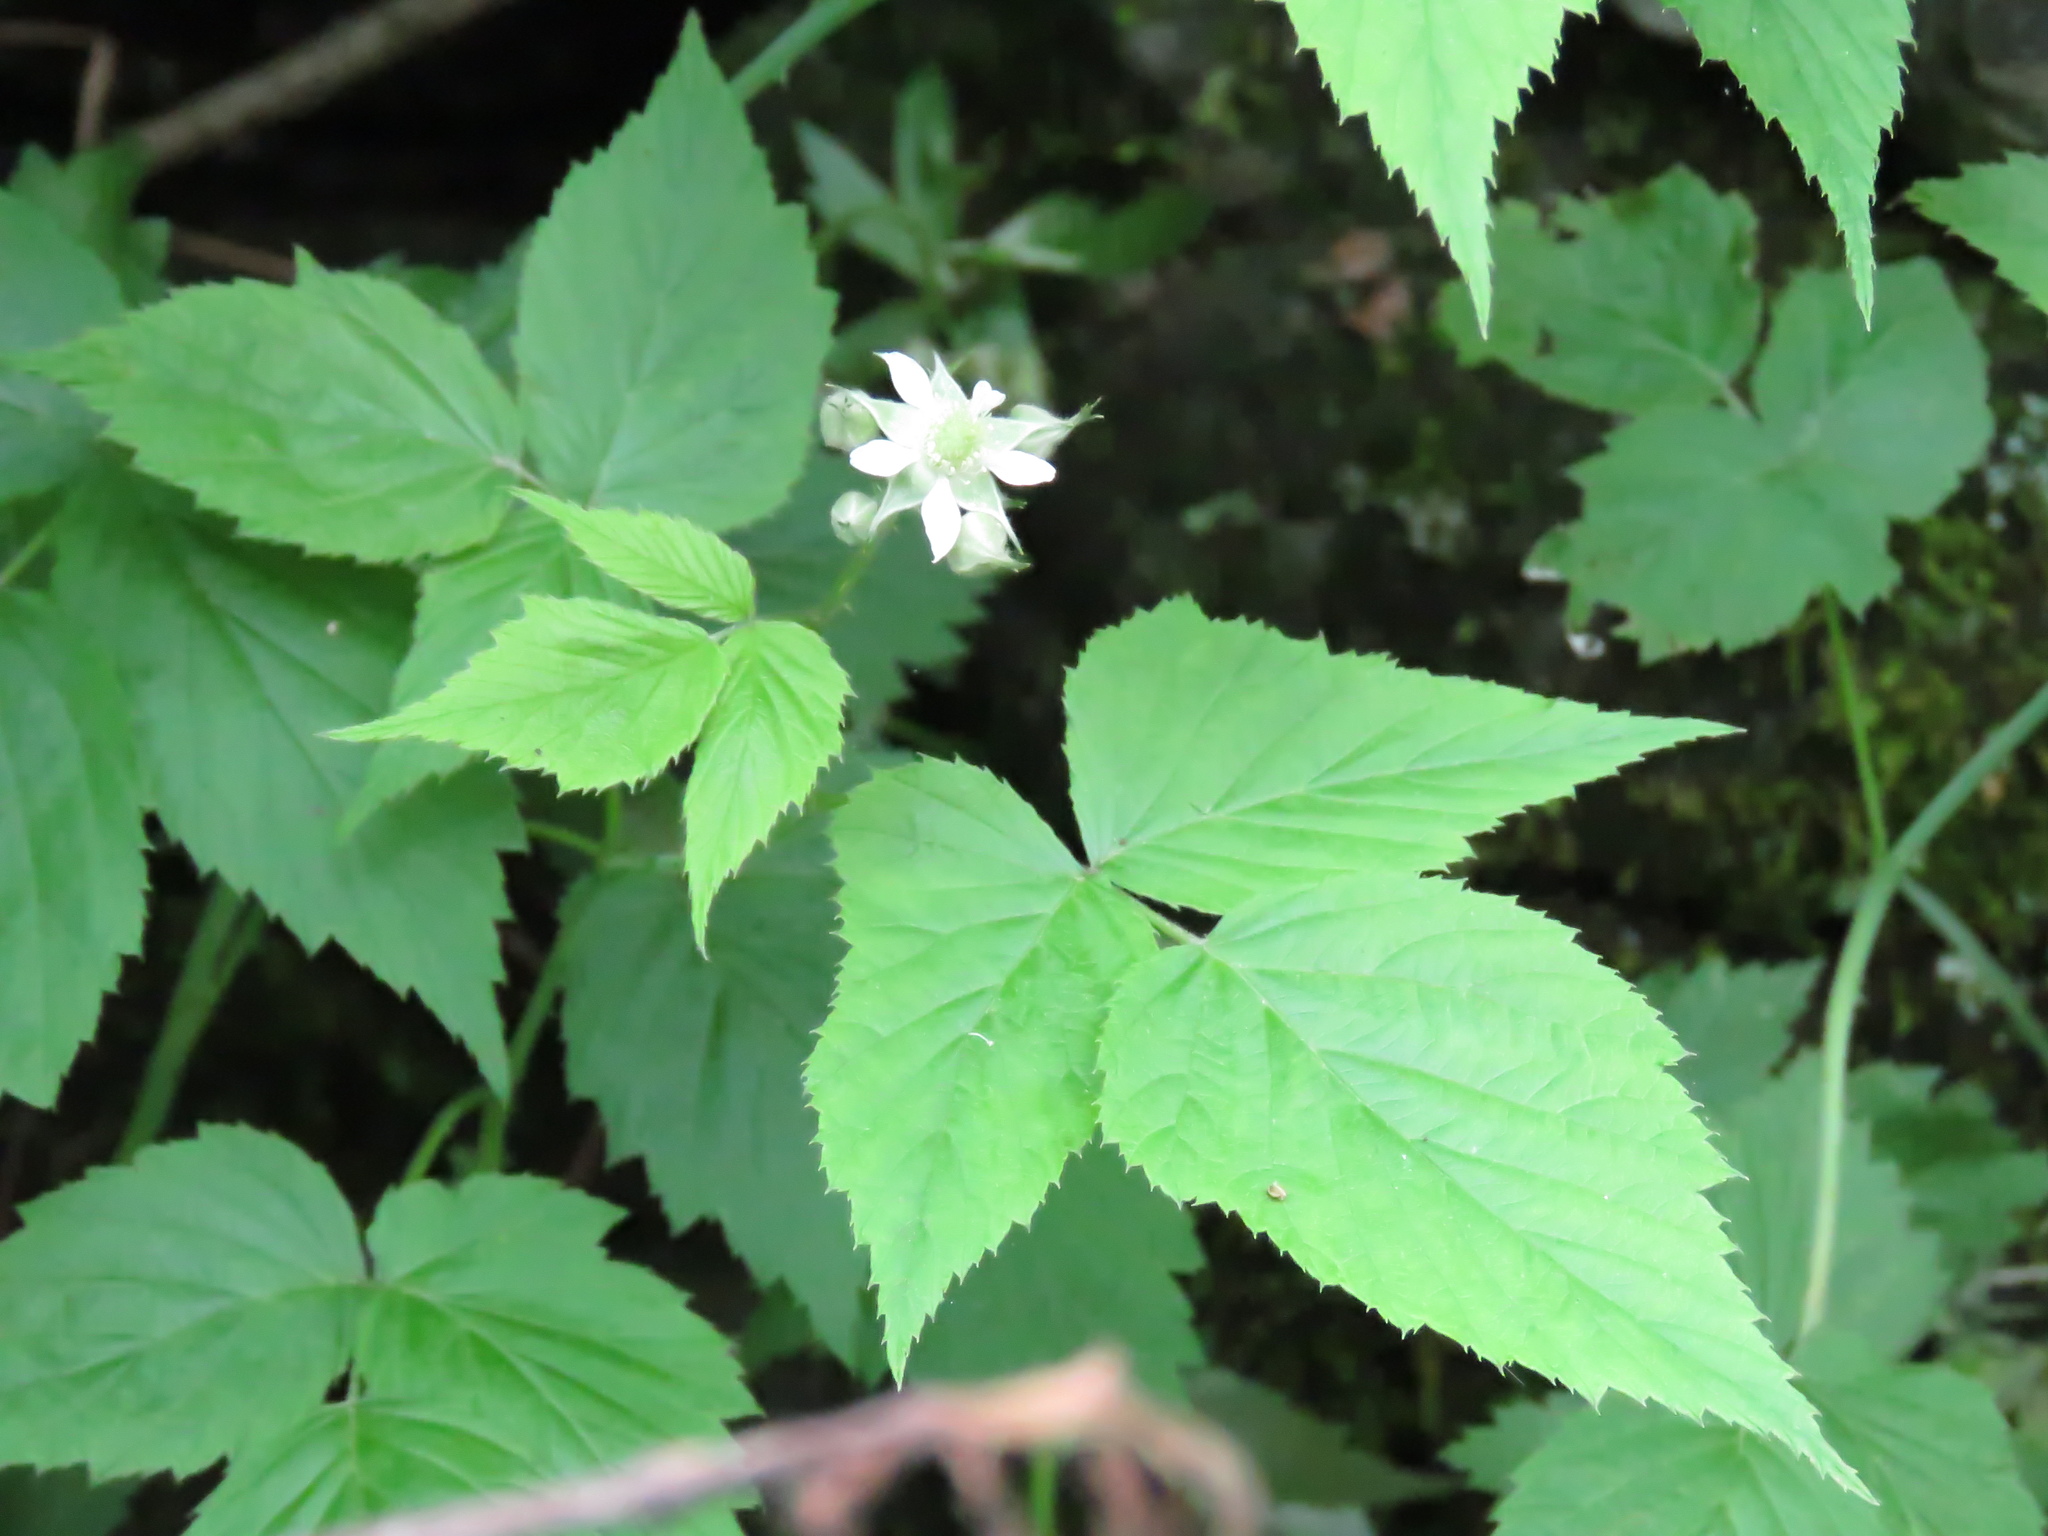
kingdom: Plantae
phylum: Tracheophyta
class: Magnoliopsida
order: Rosales
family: Rosaceae
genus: Rubus
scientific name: Rubus occidentalis
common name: Black raspberry
